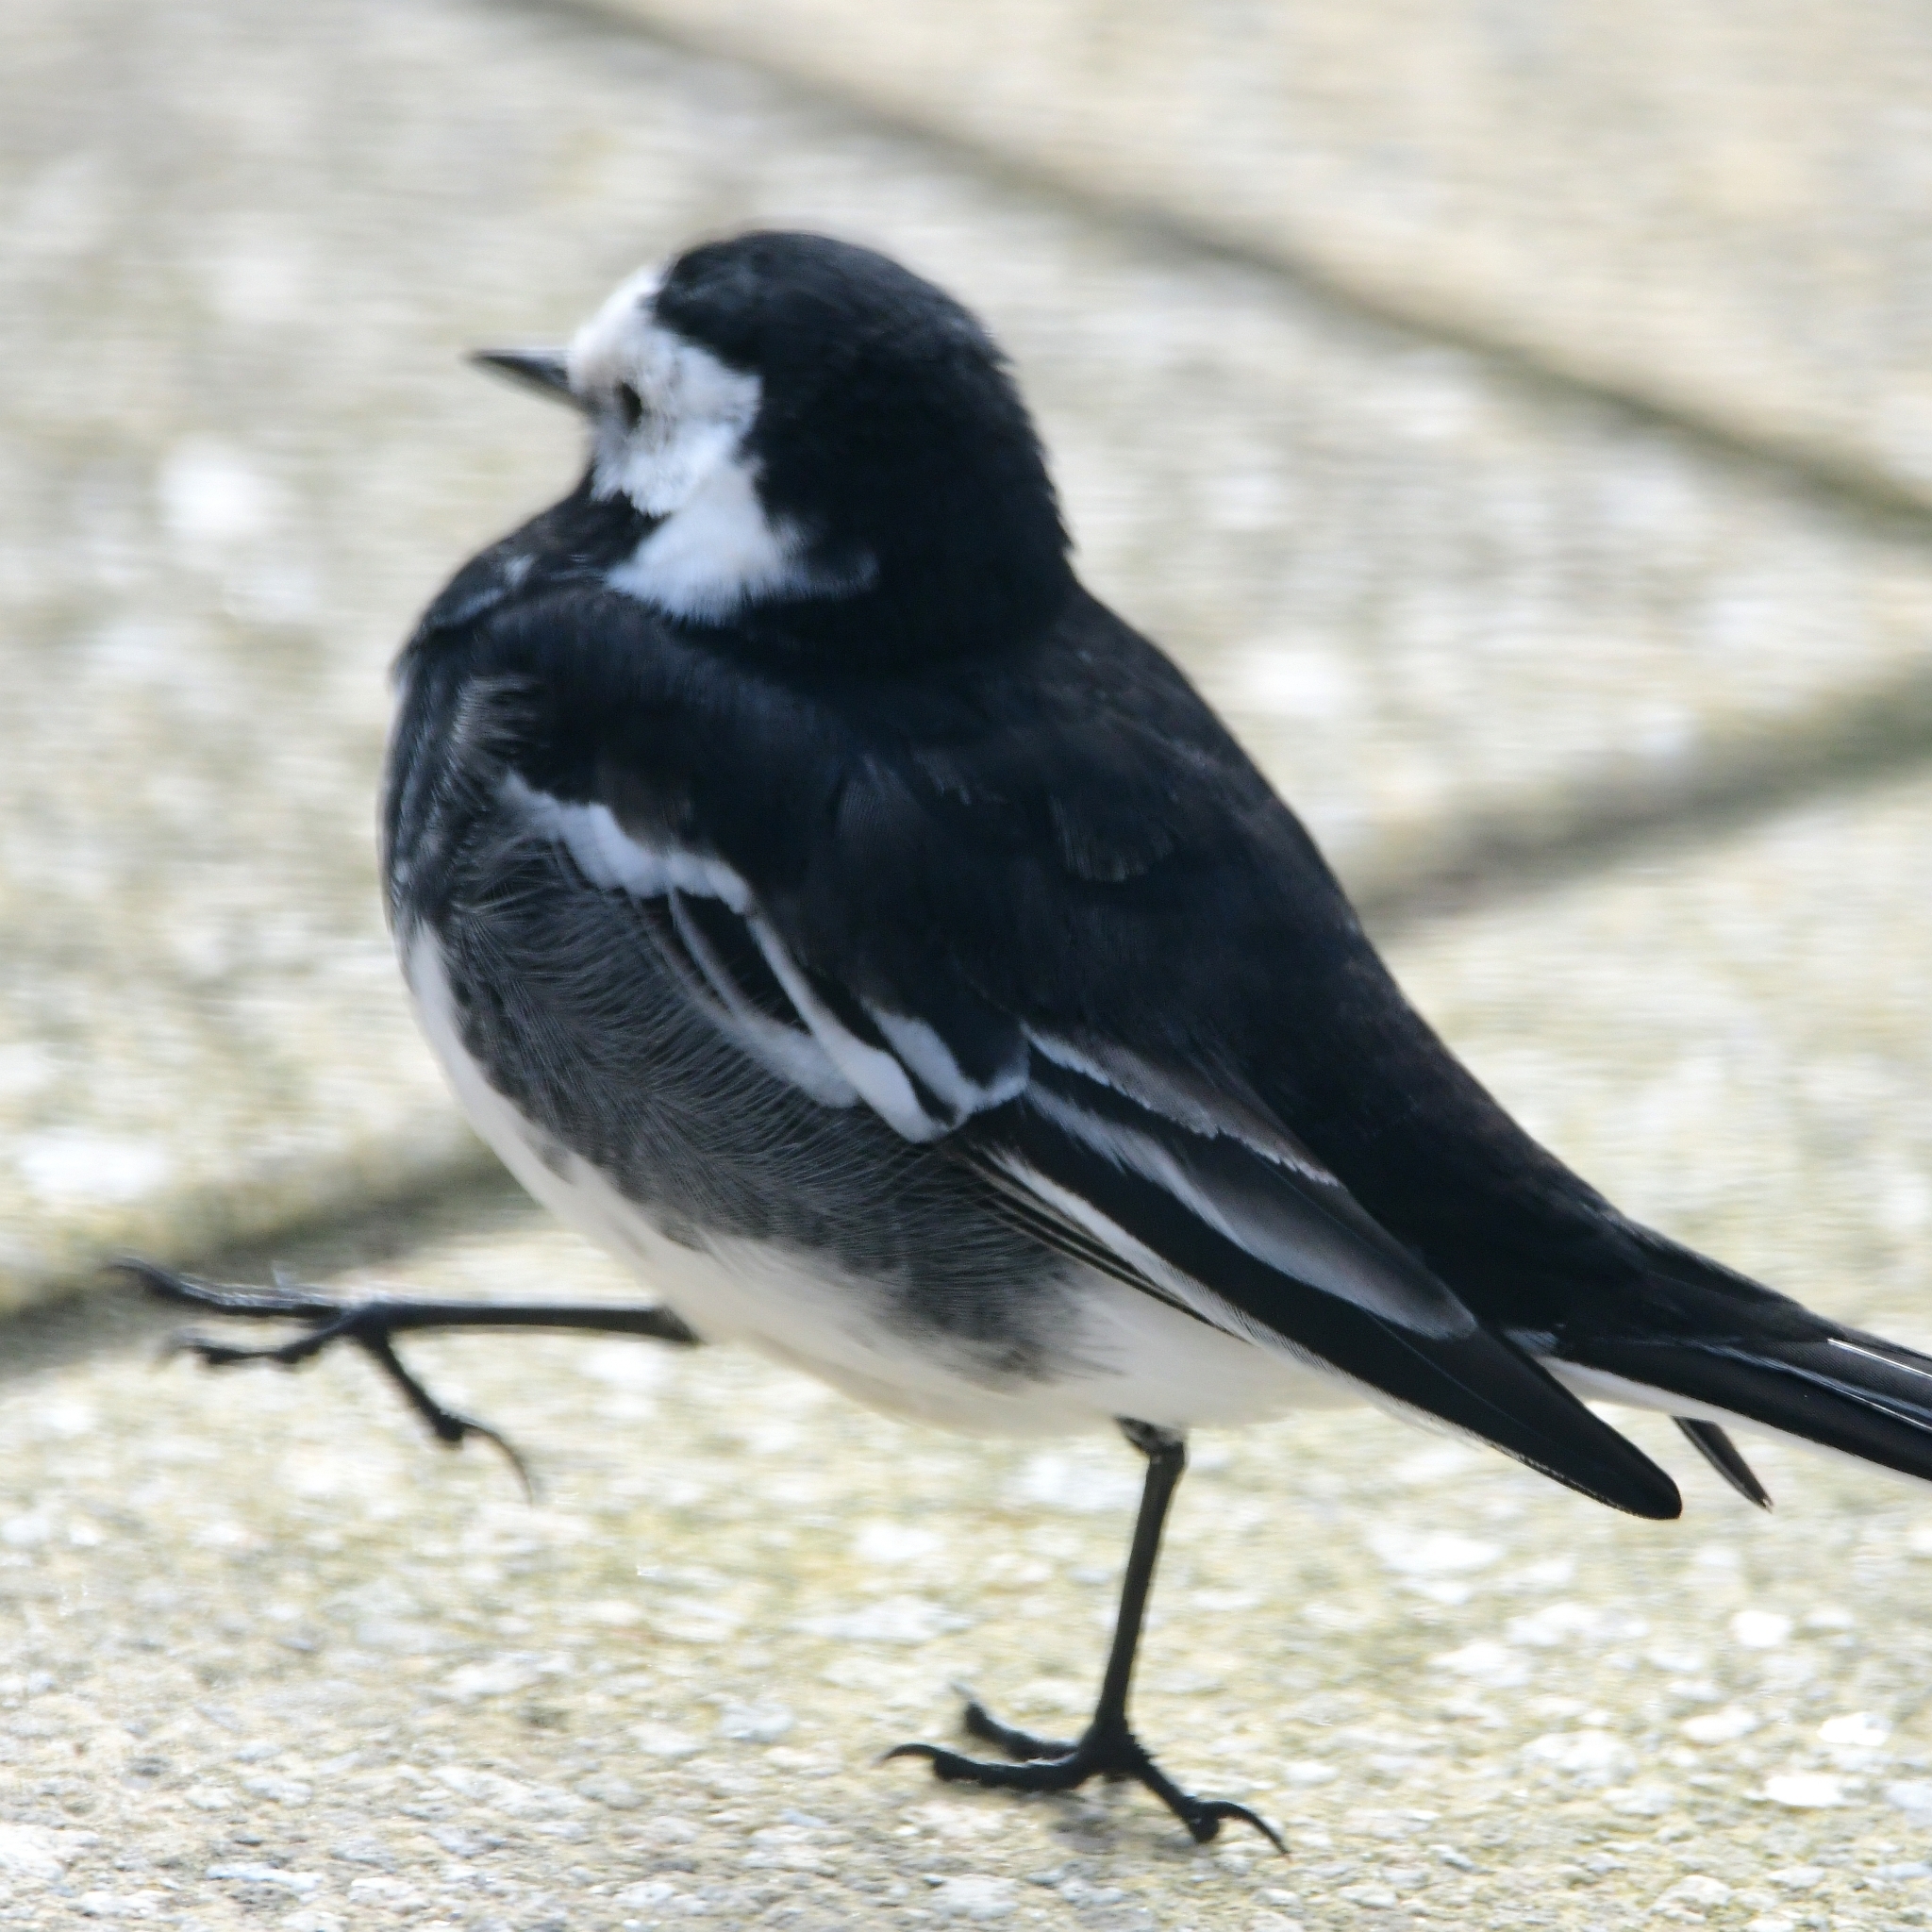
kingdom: Animalia
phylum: Chordata
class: Aves
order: Passeriformes
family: Motacillidae
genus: Motacilla
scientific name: Motacilla alba
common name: White wagtail
